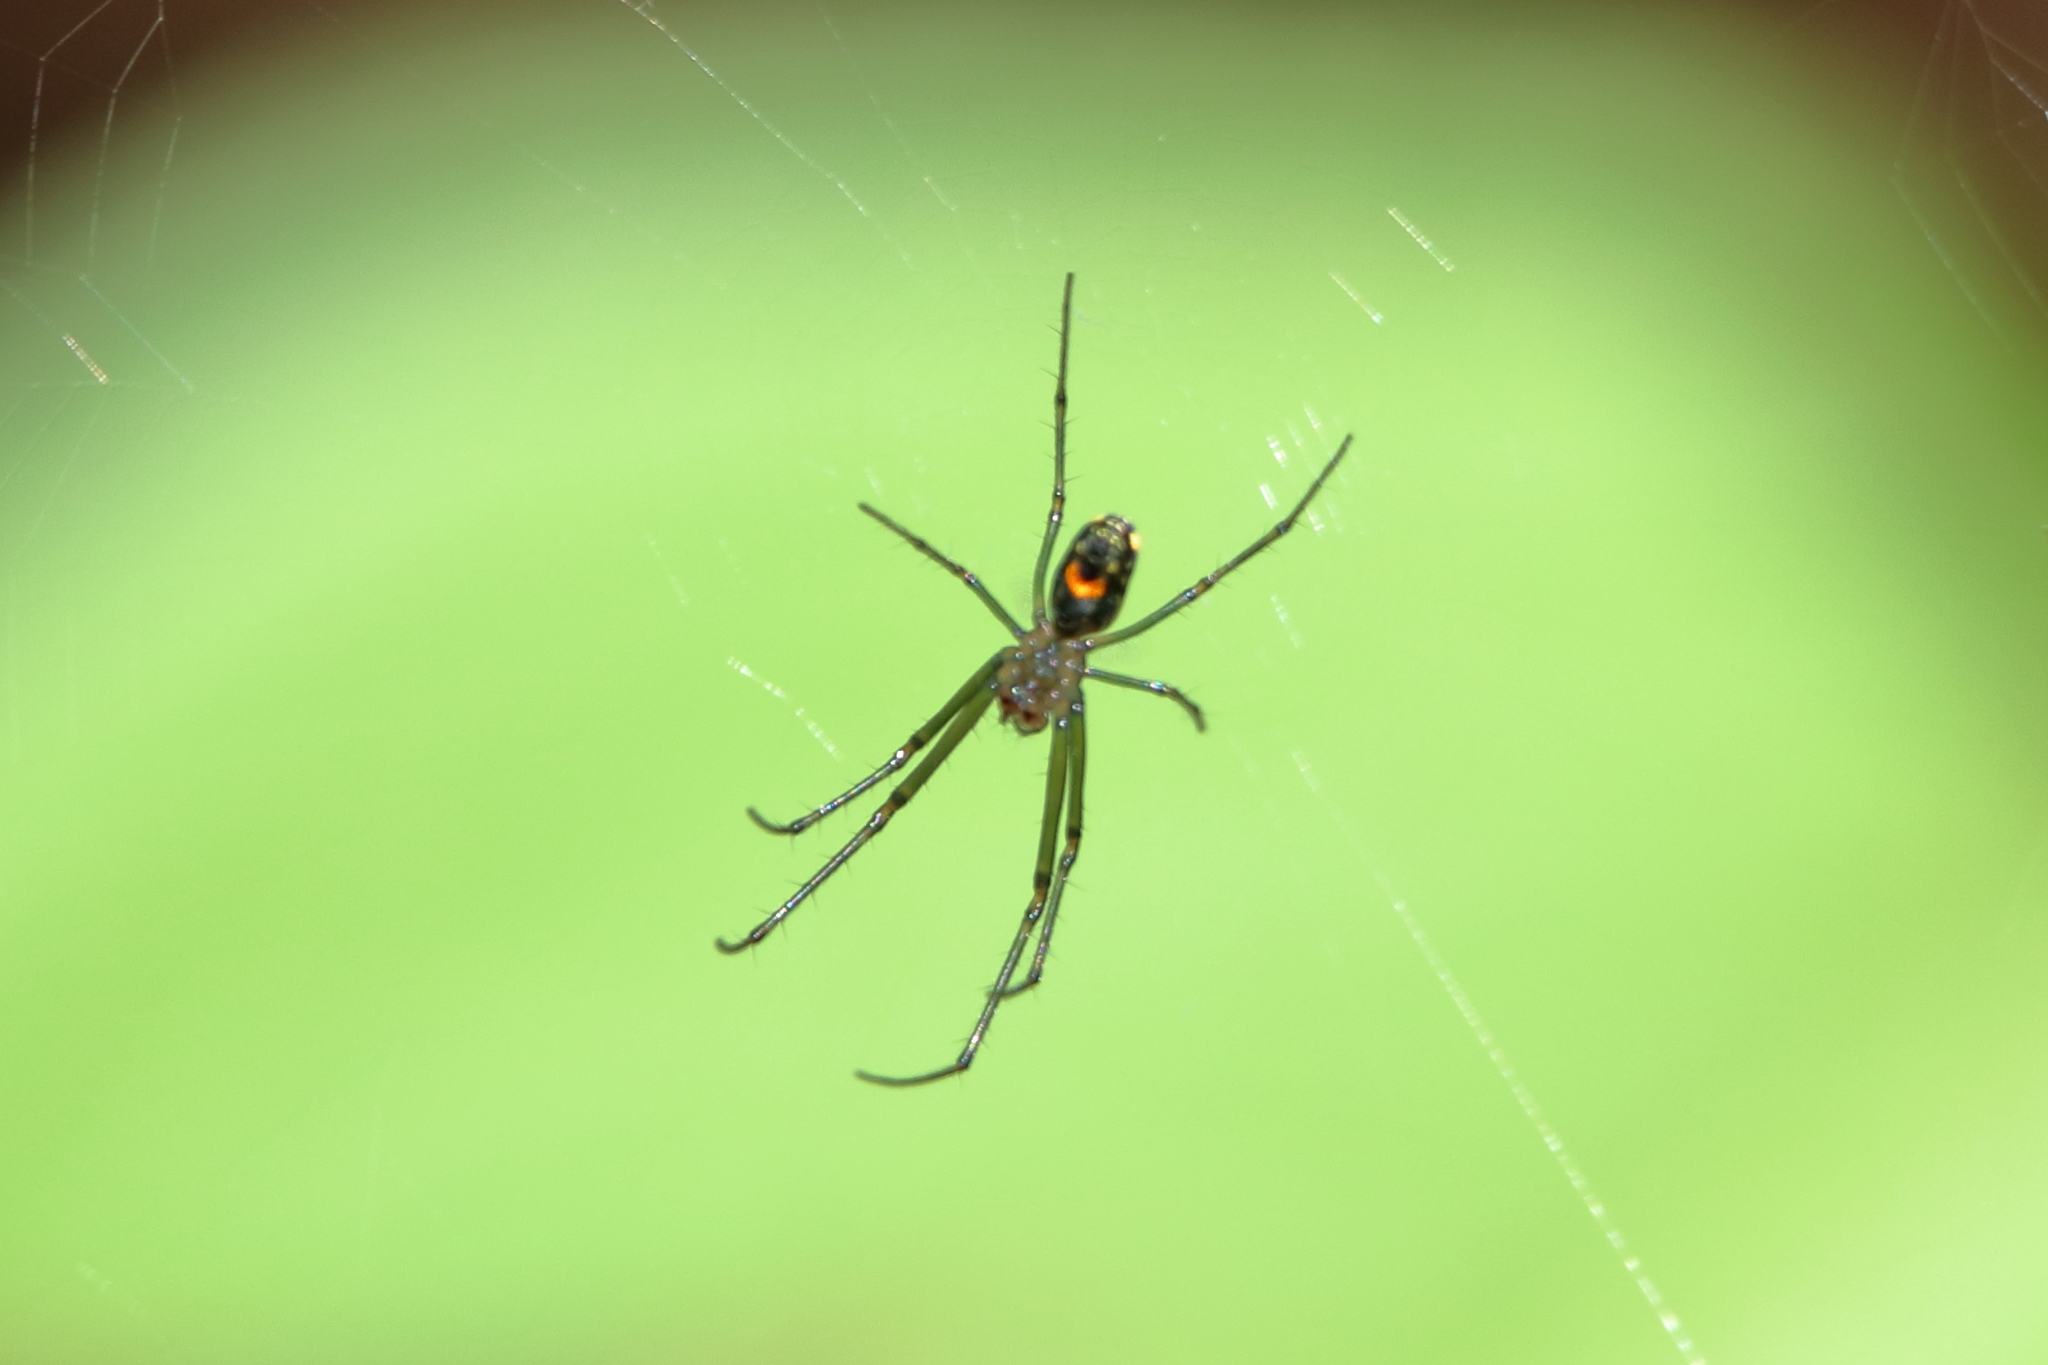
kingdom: Animalia
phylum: Arthropoda
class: Arachnida
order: Araneae
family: Tetragnathidae
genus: Leucauge
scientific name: Leucauge argyrobapta
